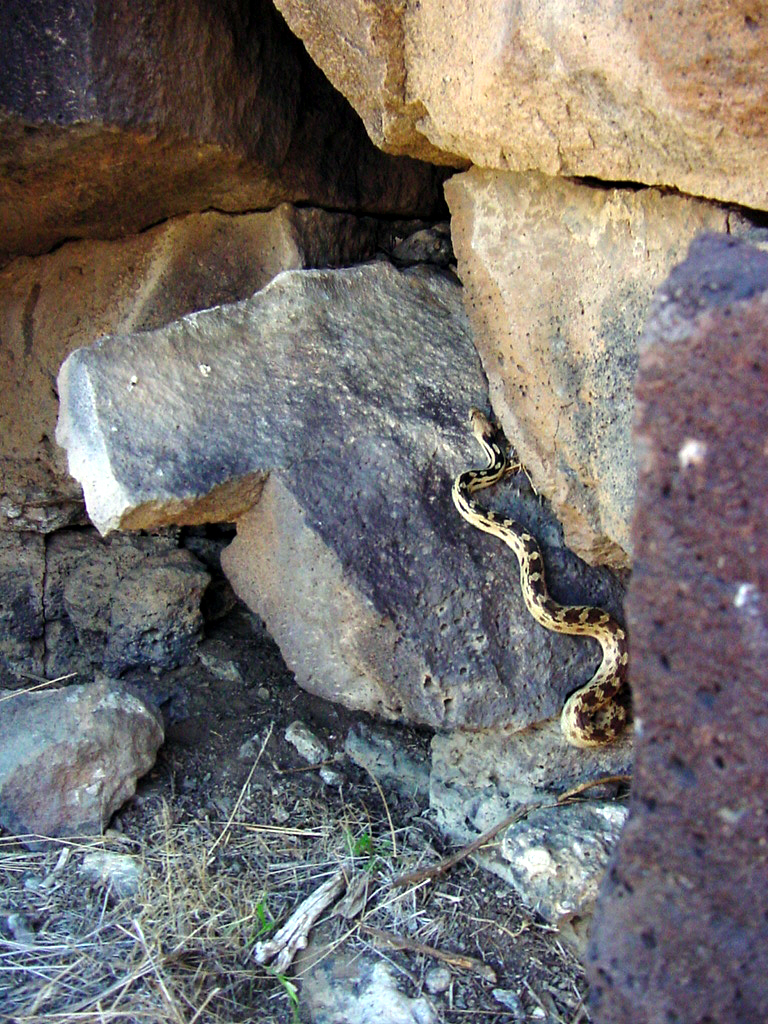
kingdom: Animalia
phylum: Chordata
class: Squamata
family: Colubridae
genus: Pituophis
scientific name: Pituophis catenifer
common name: Gopher snake
